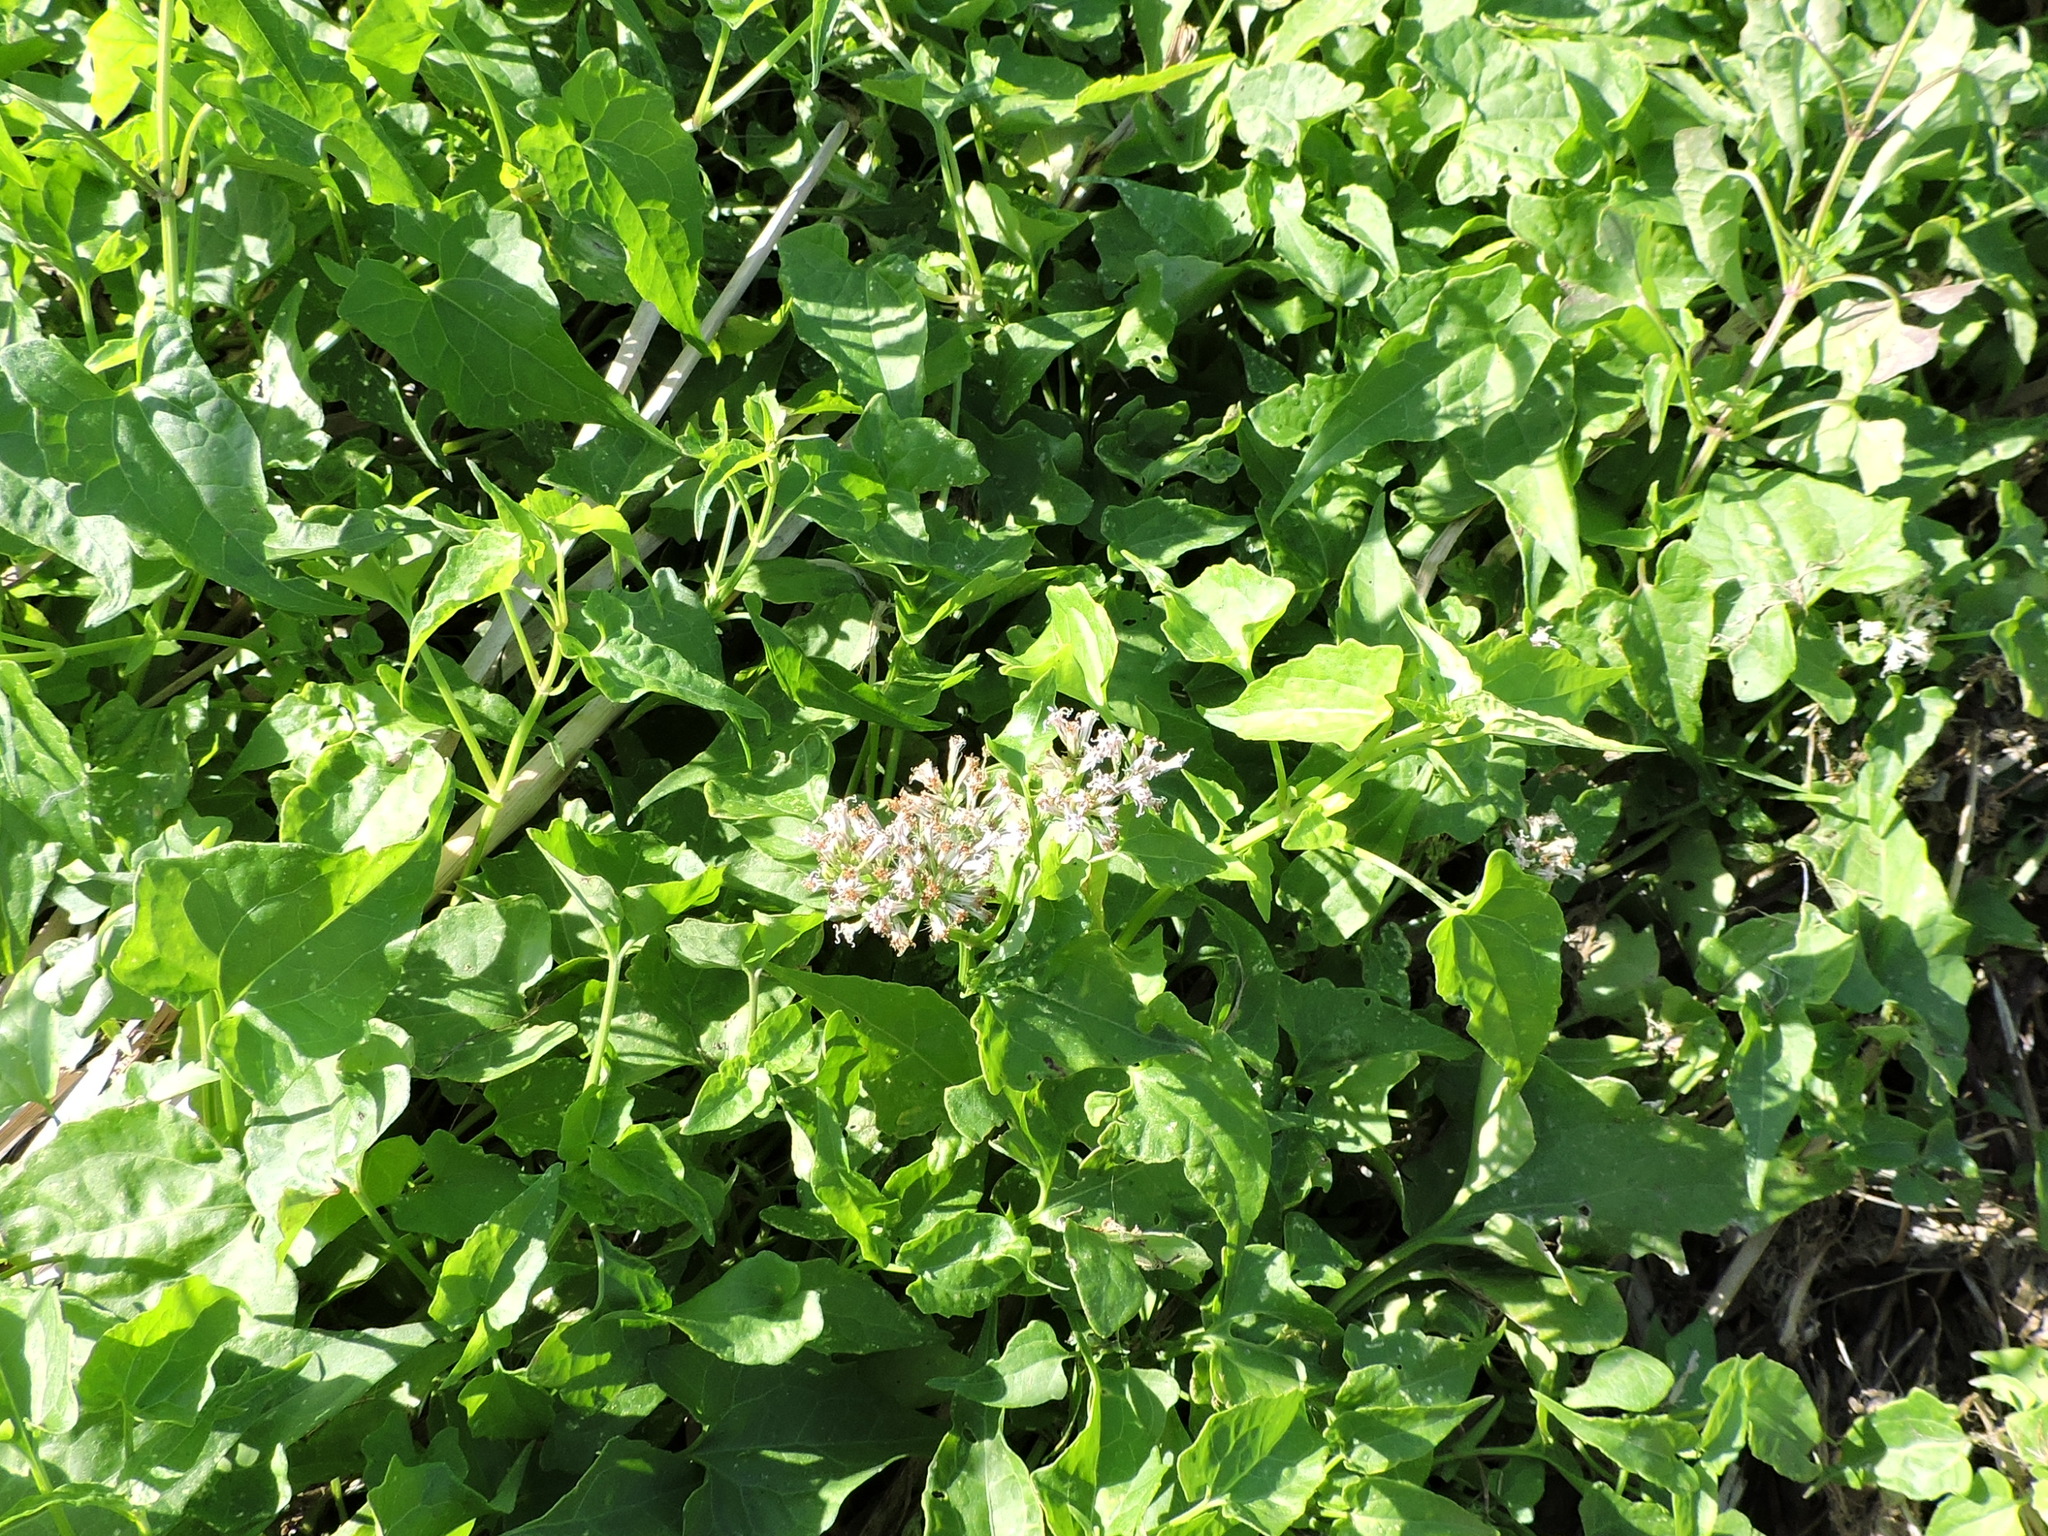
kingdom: Plantae
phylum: Tracheophyta
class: Magnoliopsida
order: Asterales
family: Asteraceae
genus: Mikania
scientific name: Mikania scandens
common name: Climbing hempvine
